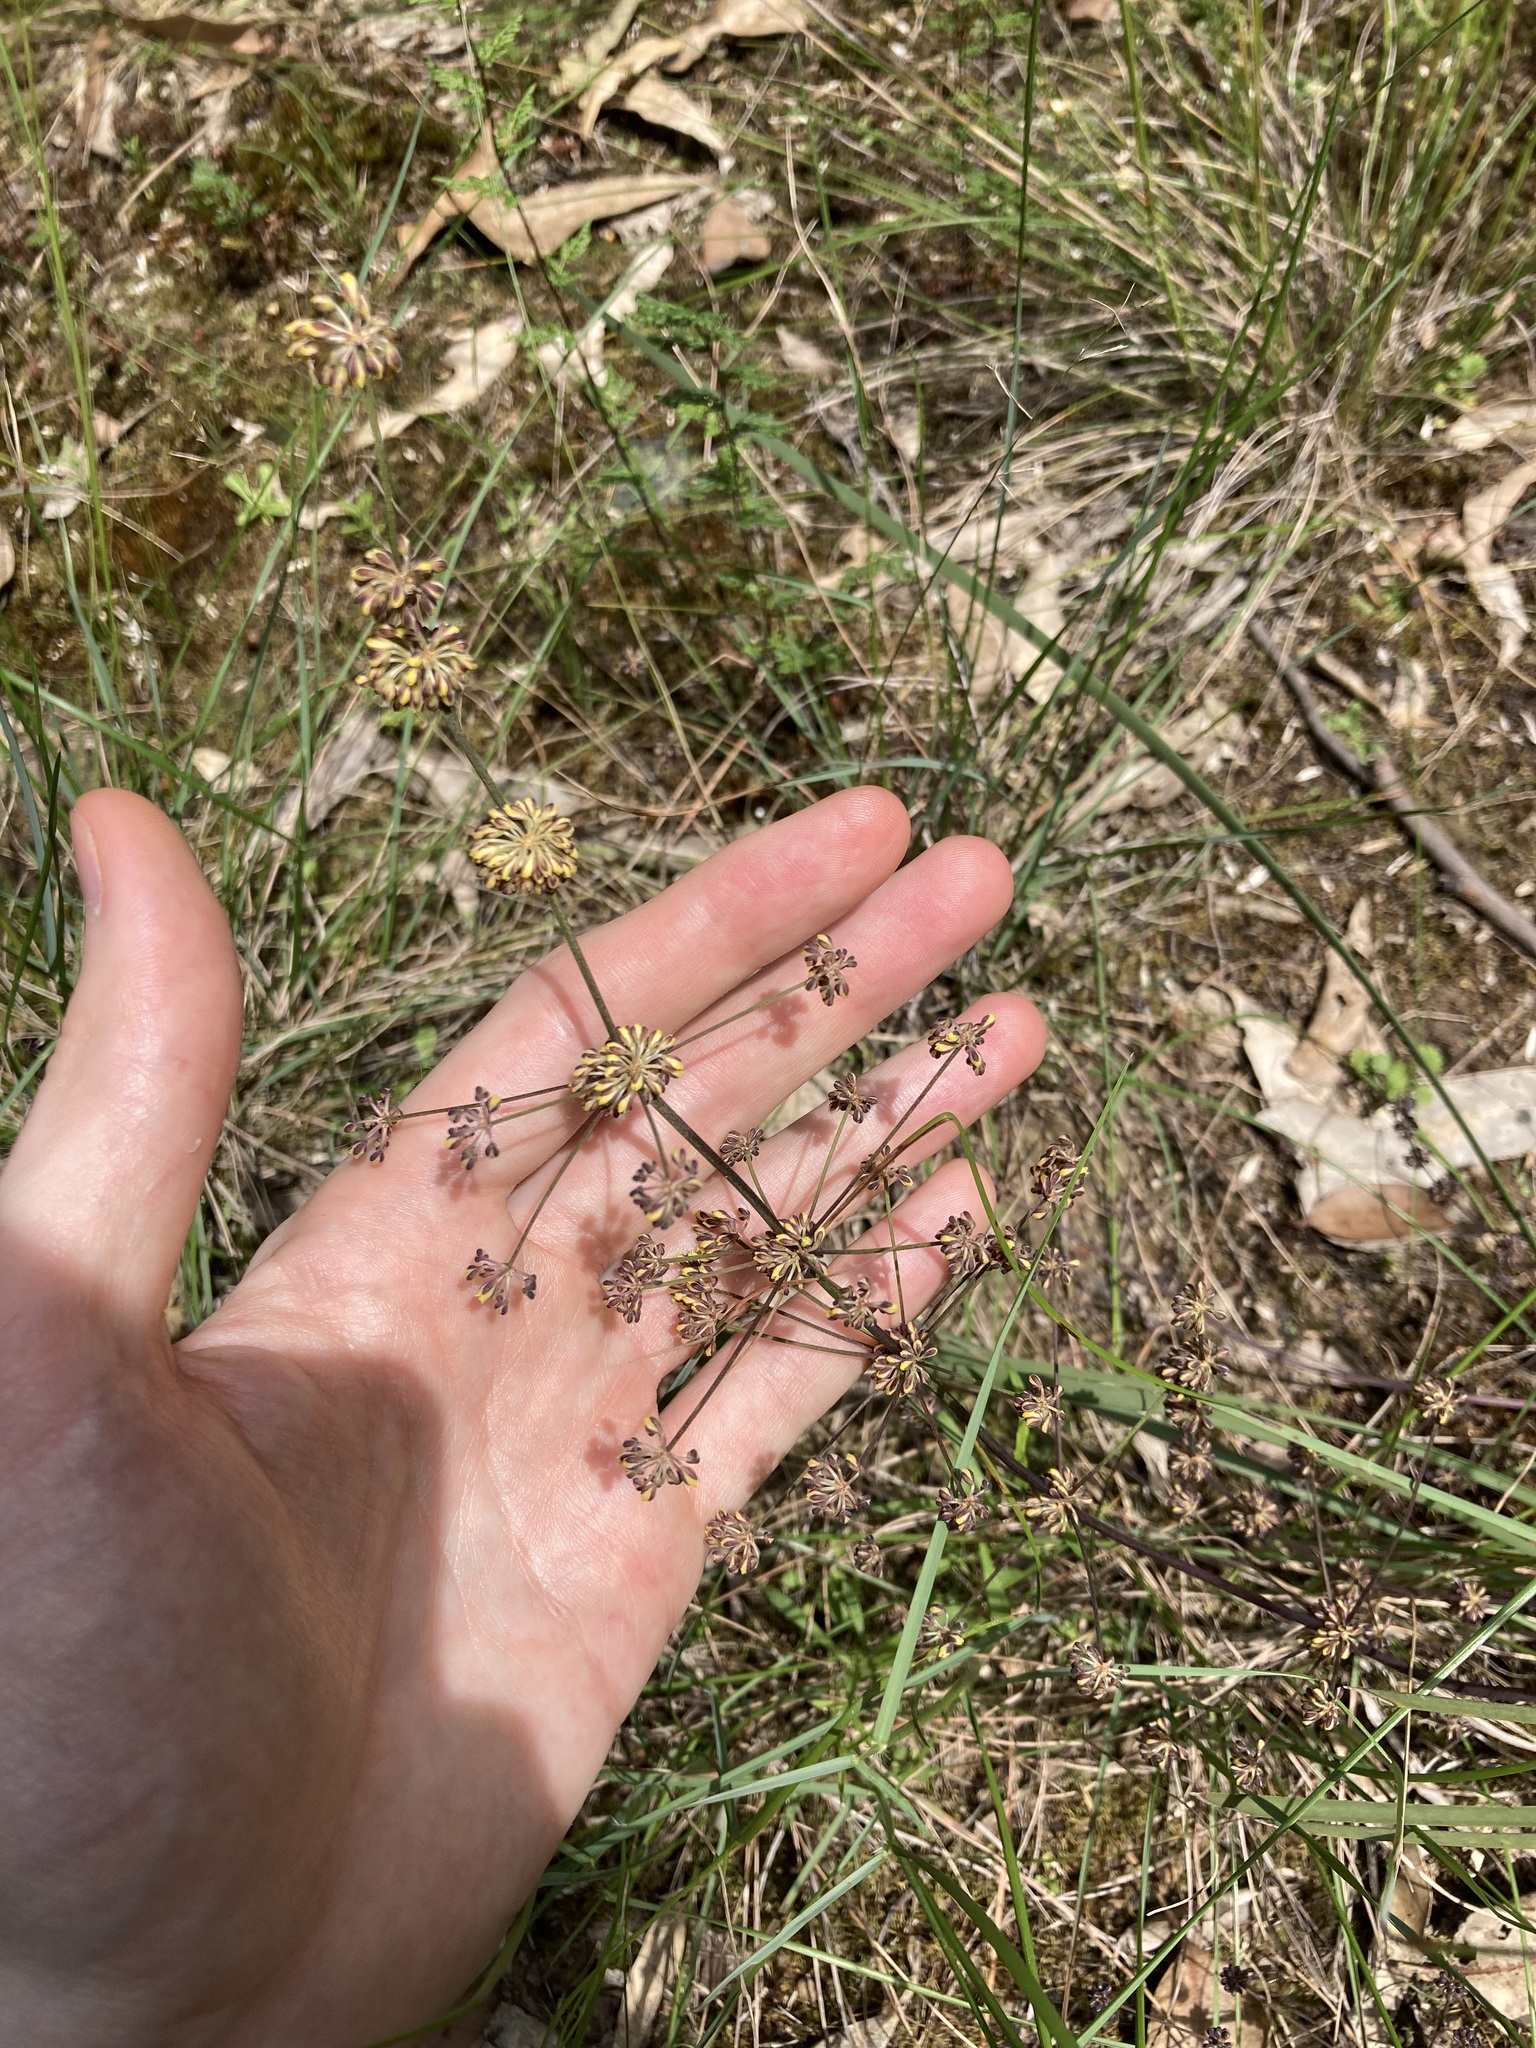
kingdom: Plantae
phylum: Tracheophyta
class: Liliopsida
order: Asparagales
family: Asparagaceae
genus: Lomandra
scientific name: Lomandra multiflora
